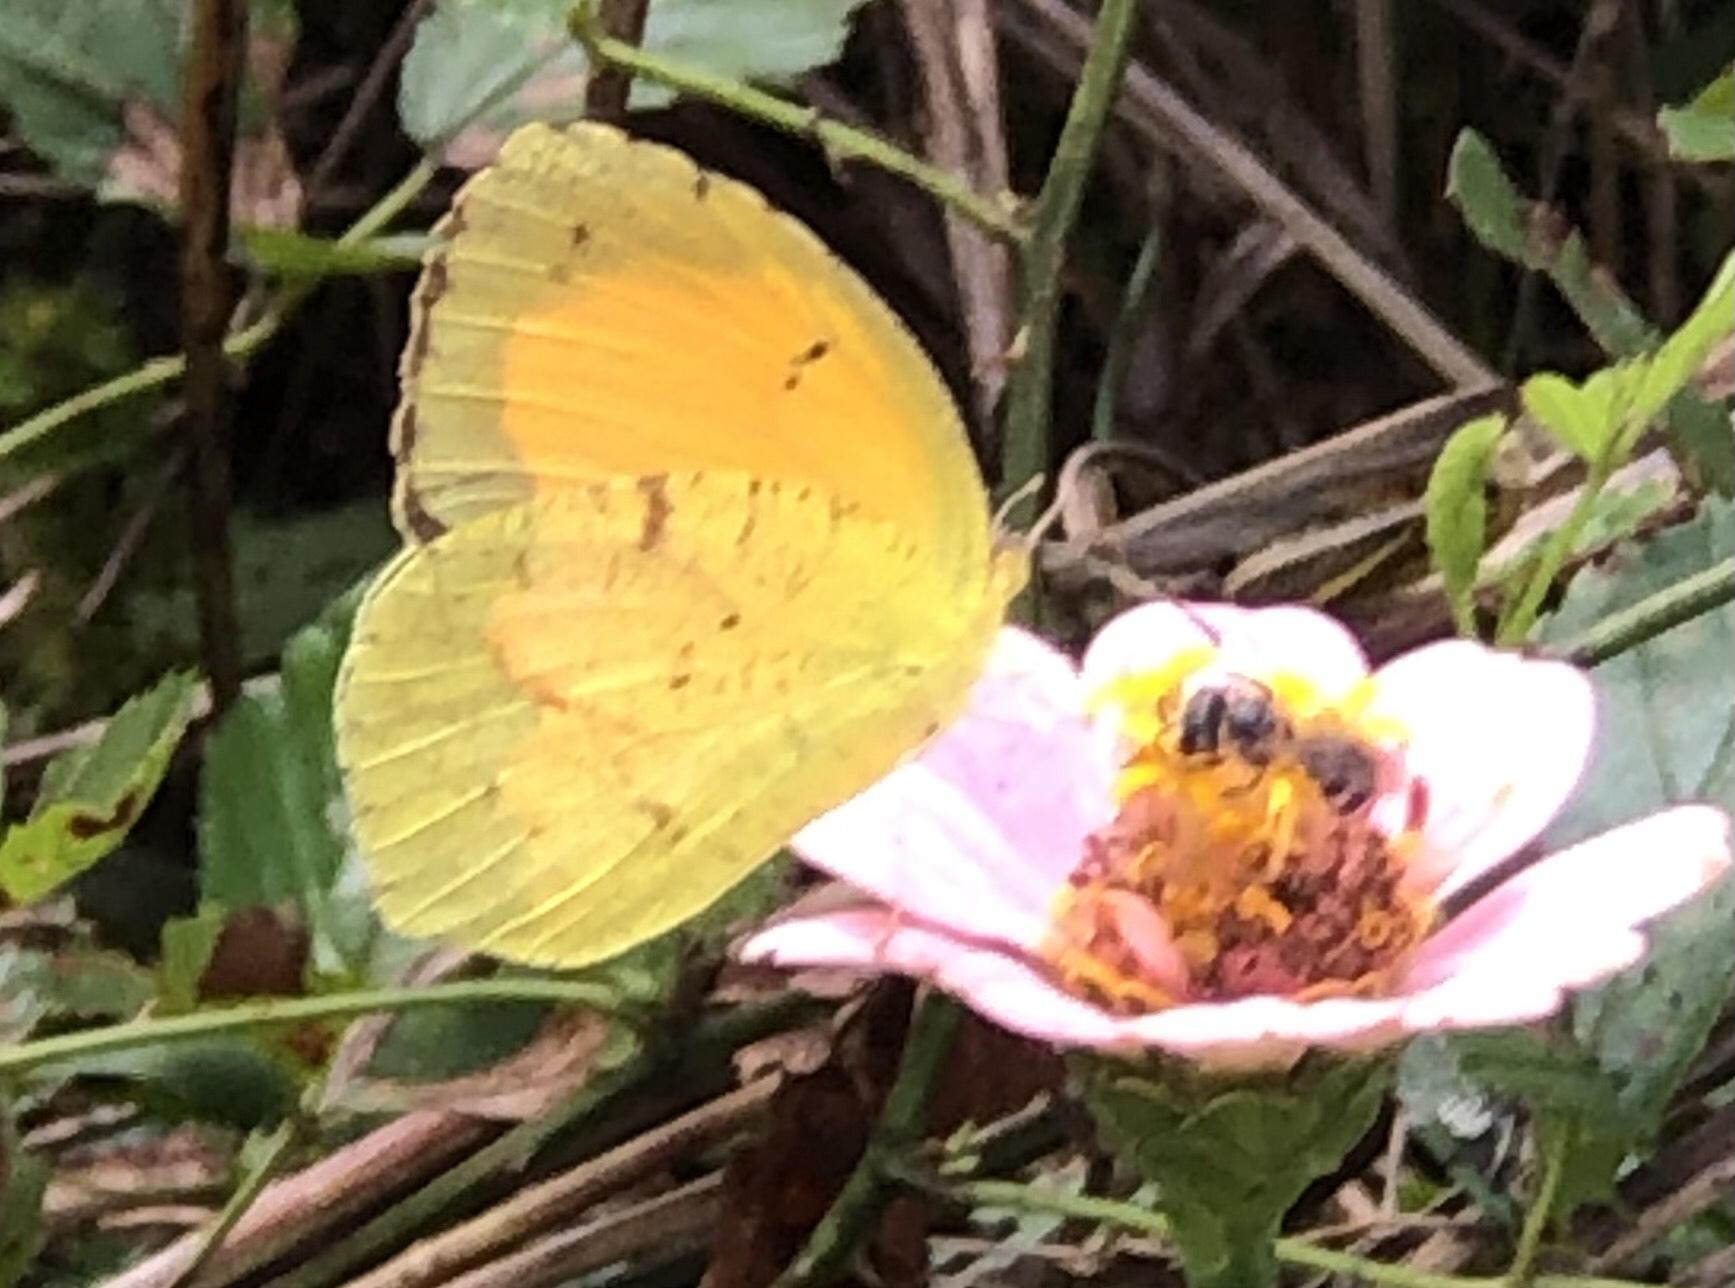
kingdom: Animalia
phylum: Arthropoda
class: Insecta
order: Lepidoptera
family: Pieridae
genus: Abaeis
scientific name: Abaeis nicippe
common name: Sleepy orange
